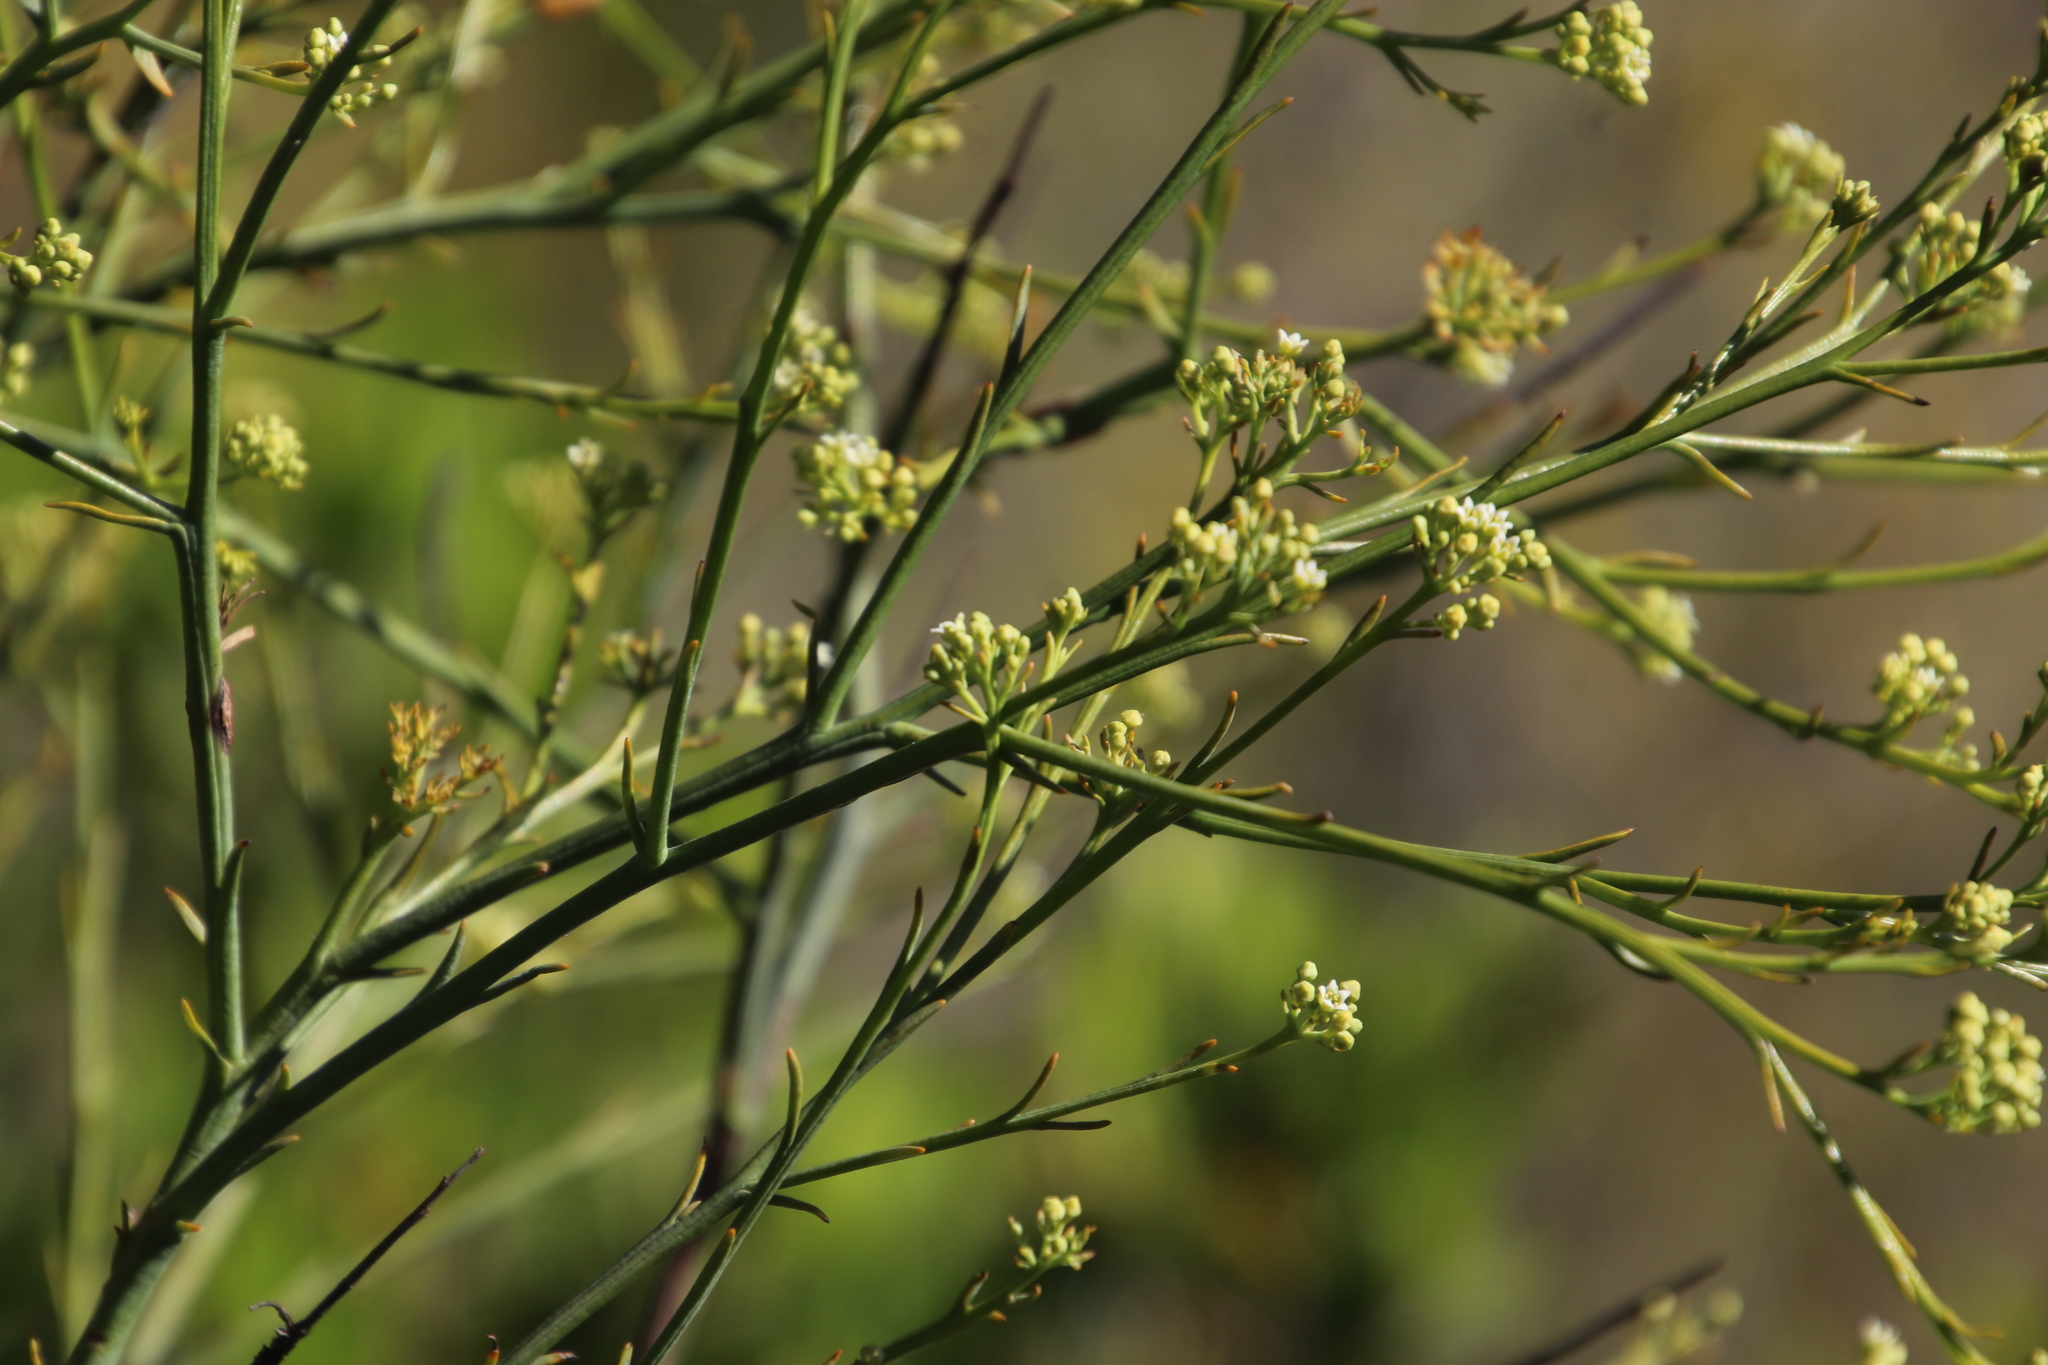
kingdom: Plantae
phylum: Tracheophyta
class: Magnoliopsida
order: Santalales
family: Thesiaceae
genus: Thesium
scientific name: Thesium strictum
